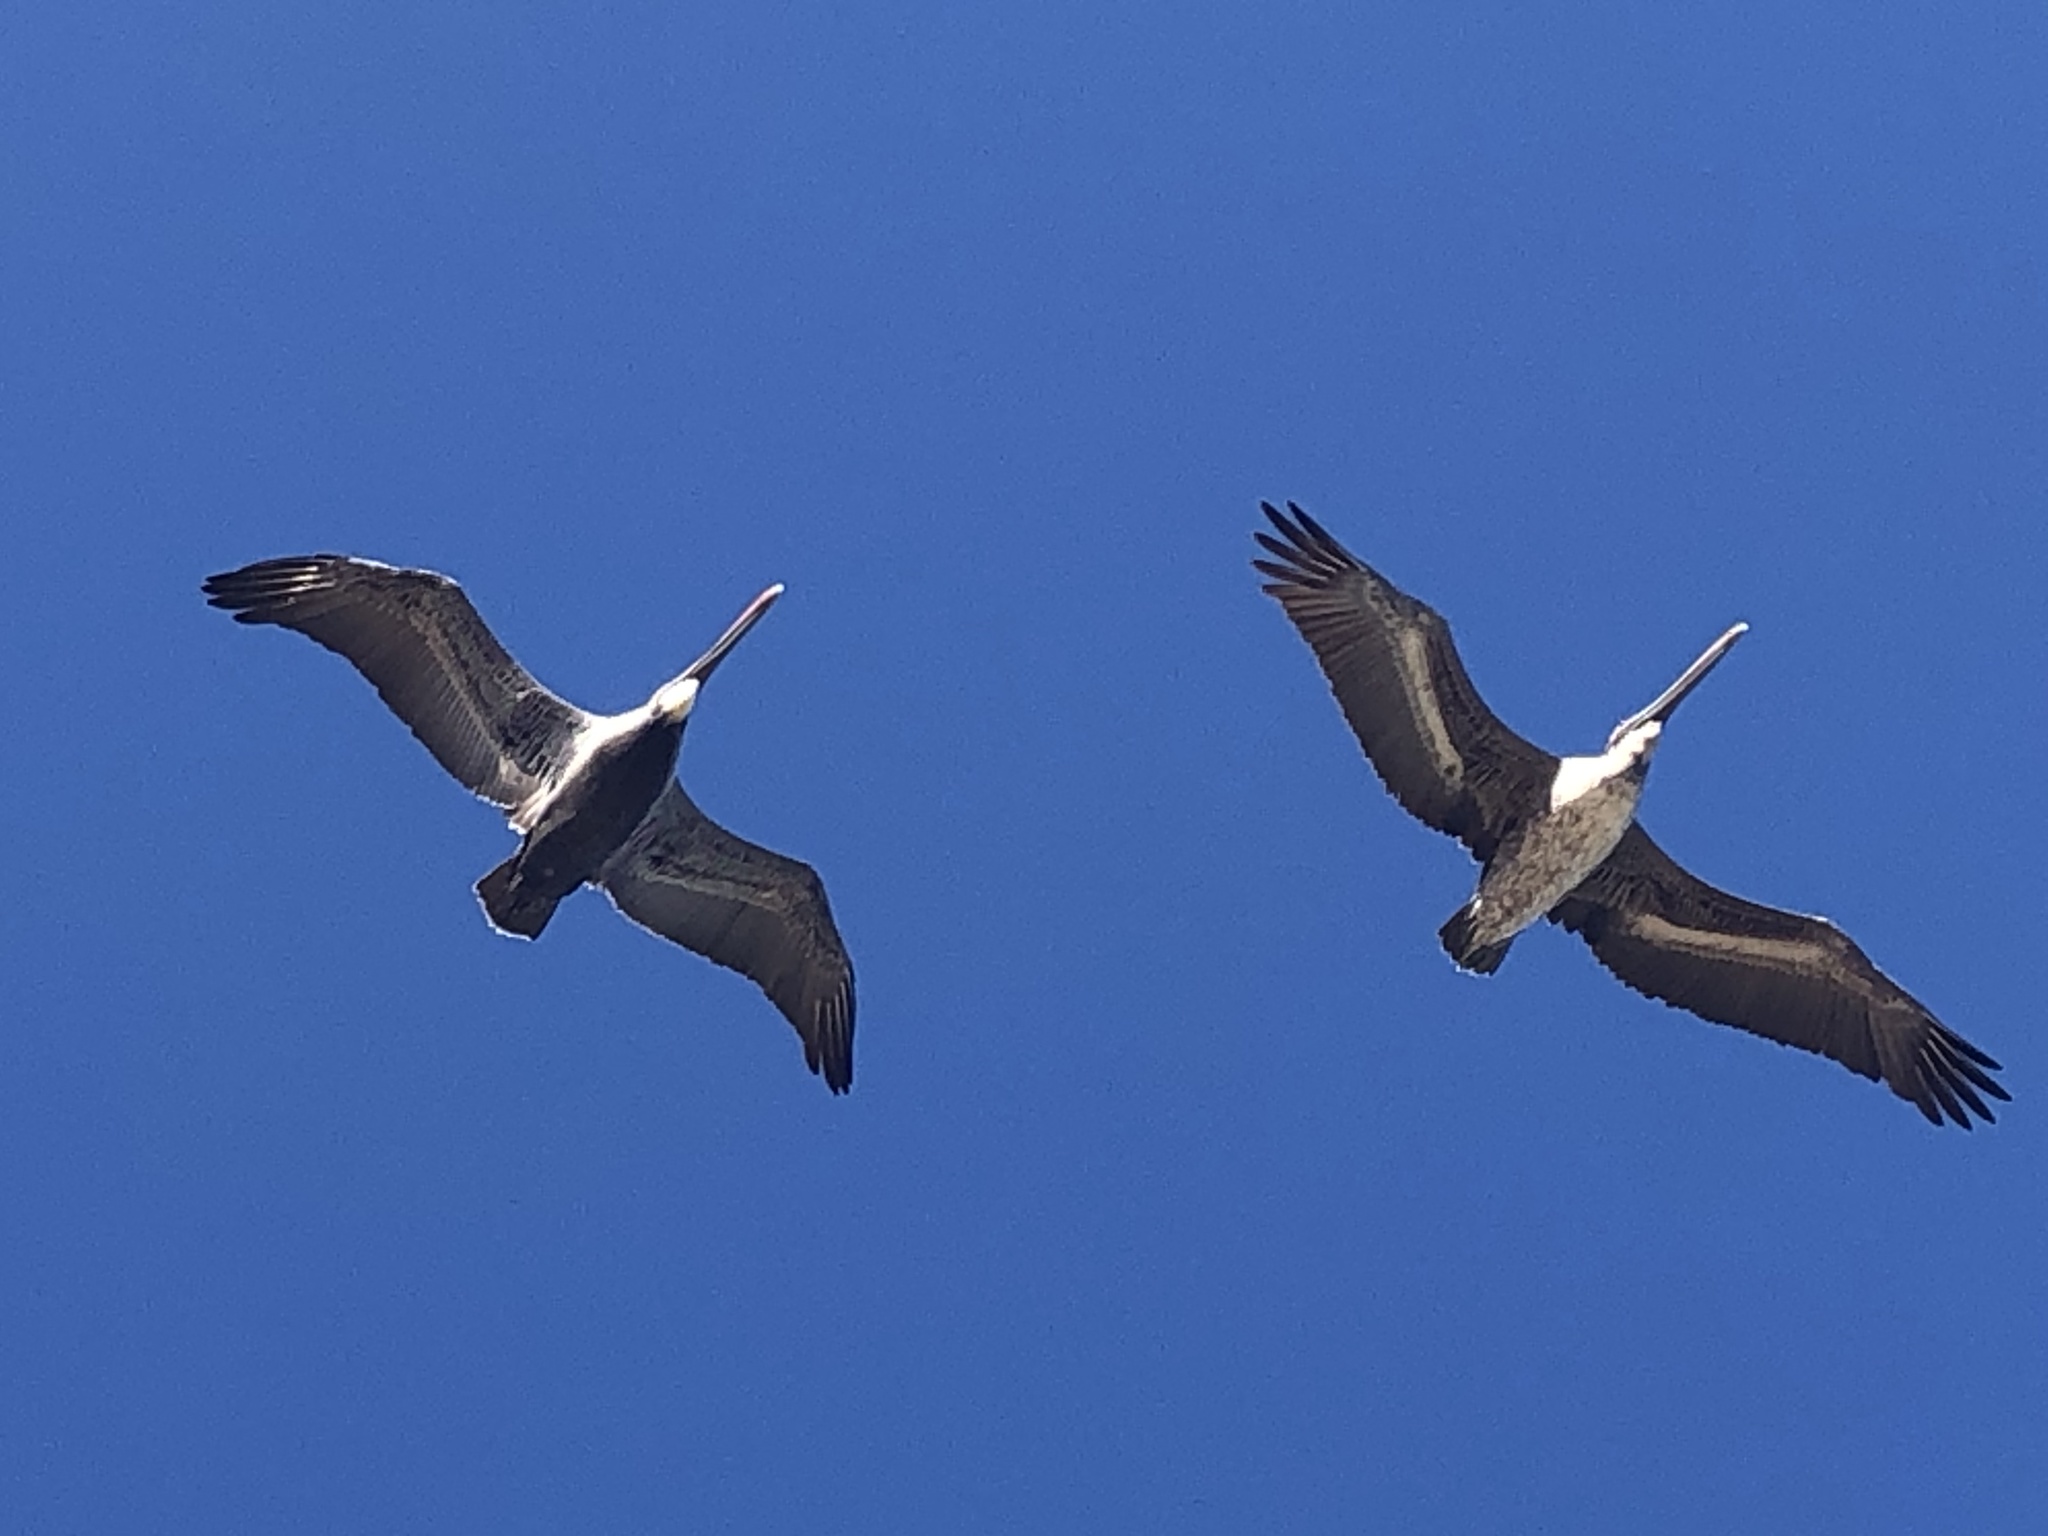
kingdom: Animalia
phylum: Chordata
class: Aves
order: Pelecaniformes
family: Pelecanidae
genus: Pelecanus
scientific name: Pelecanus occidentalis
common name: Brown pelican
